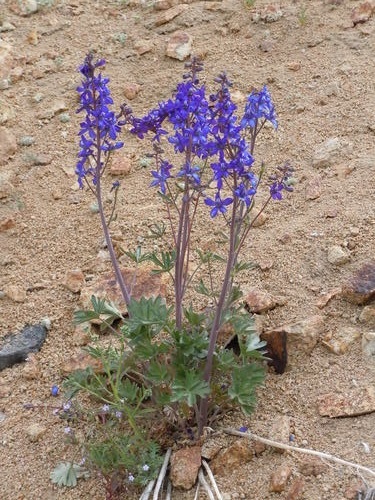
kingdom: Plantae
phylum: Tracheophyta
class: Magnoliopsida
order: Ranunculales
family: Ranunculaceae
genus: Delphinium
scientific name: Delphinium andersonii
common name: Anderson's larkspur
